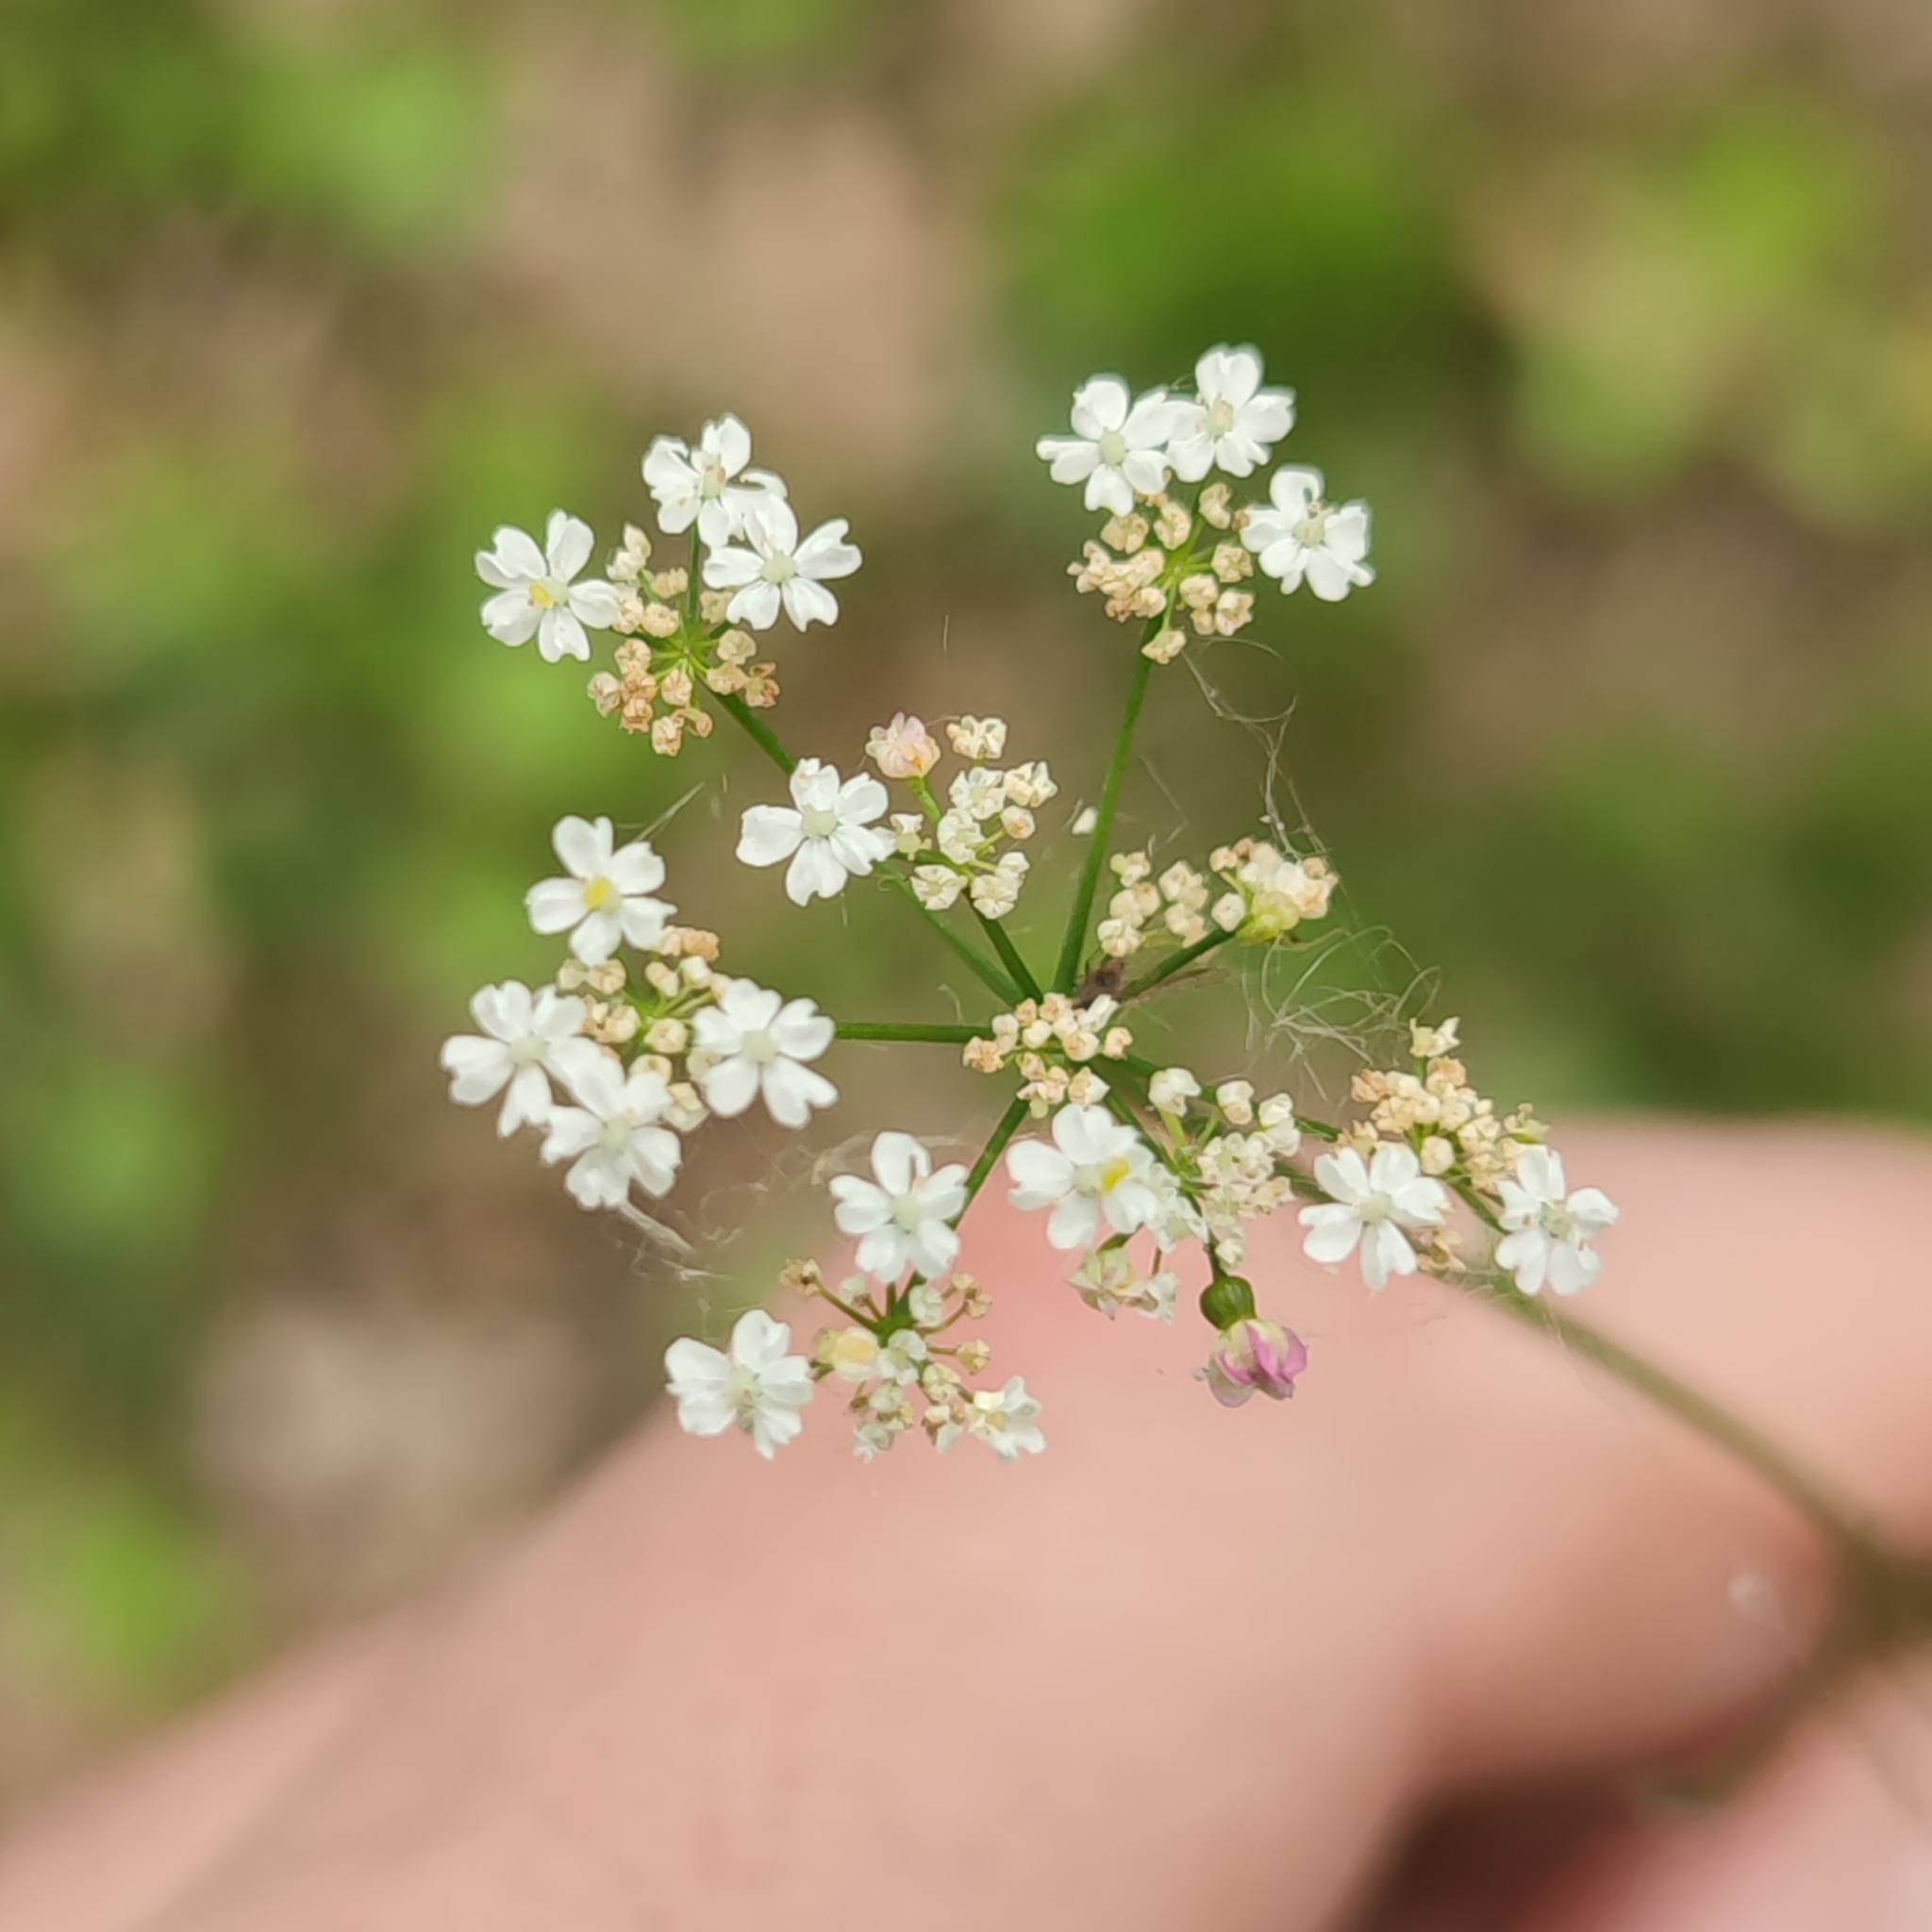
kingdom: Plantae
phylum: Tracheophyta
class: Magnoliopsida
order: Apiales
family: Apiaceae
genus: Conopodium
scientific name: Conopodium majus
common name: Pignut
